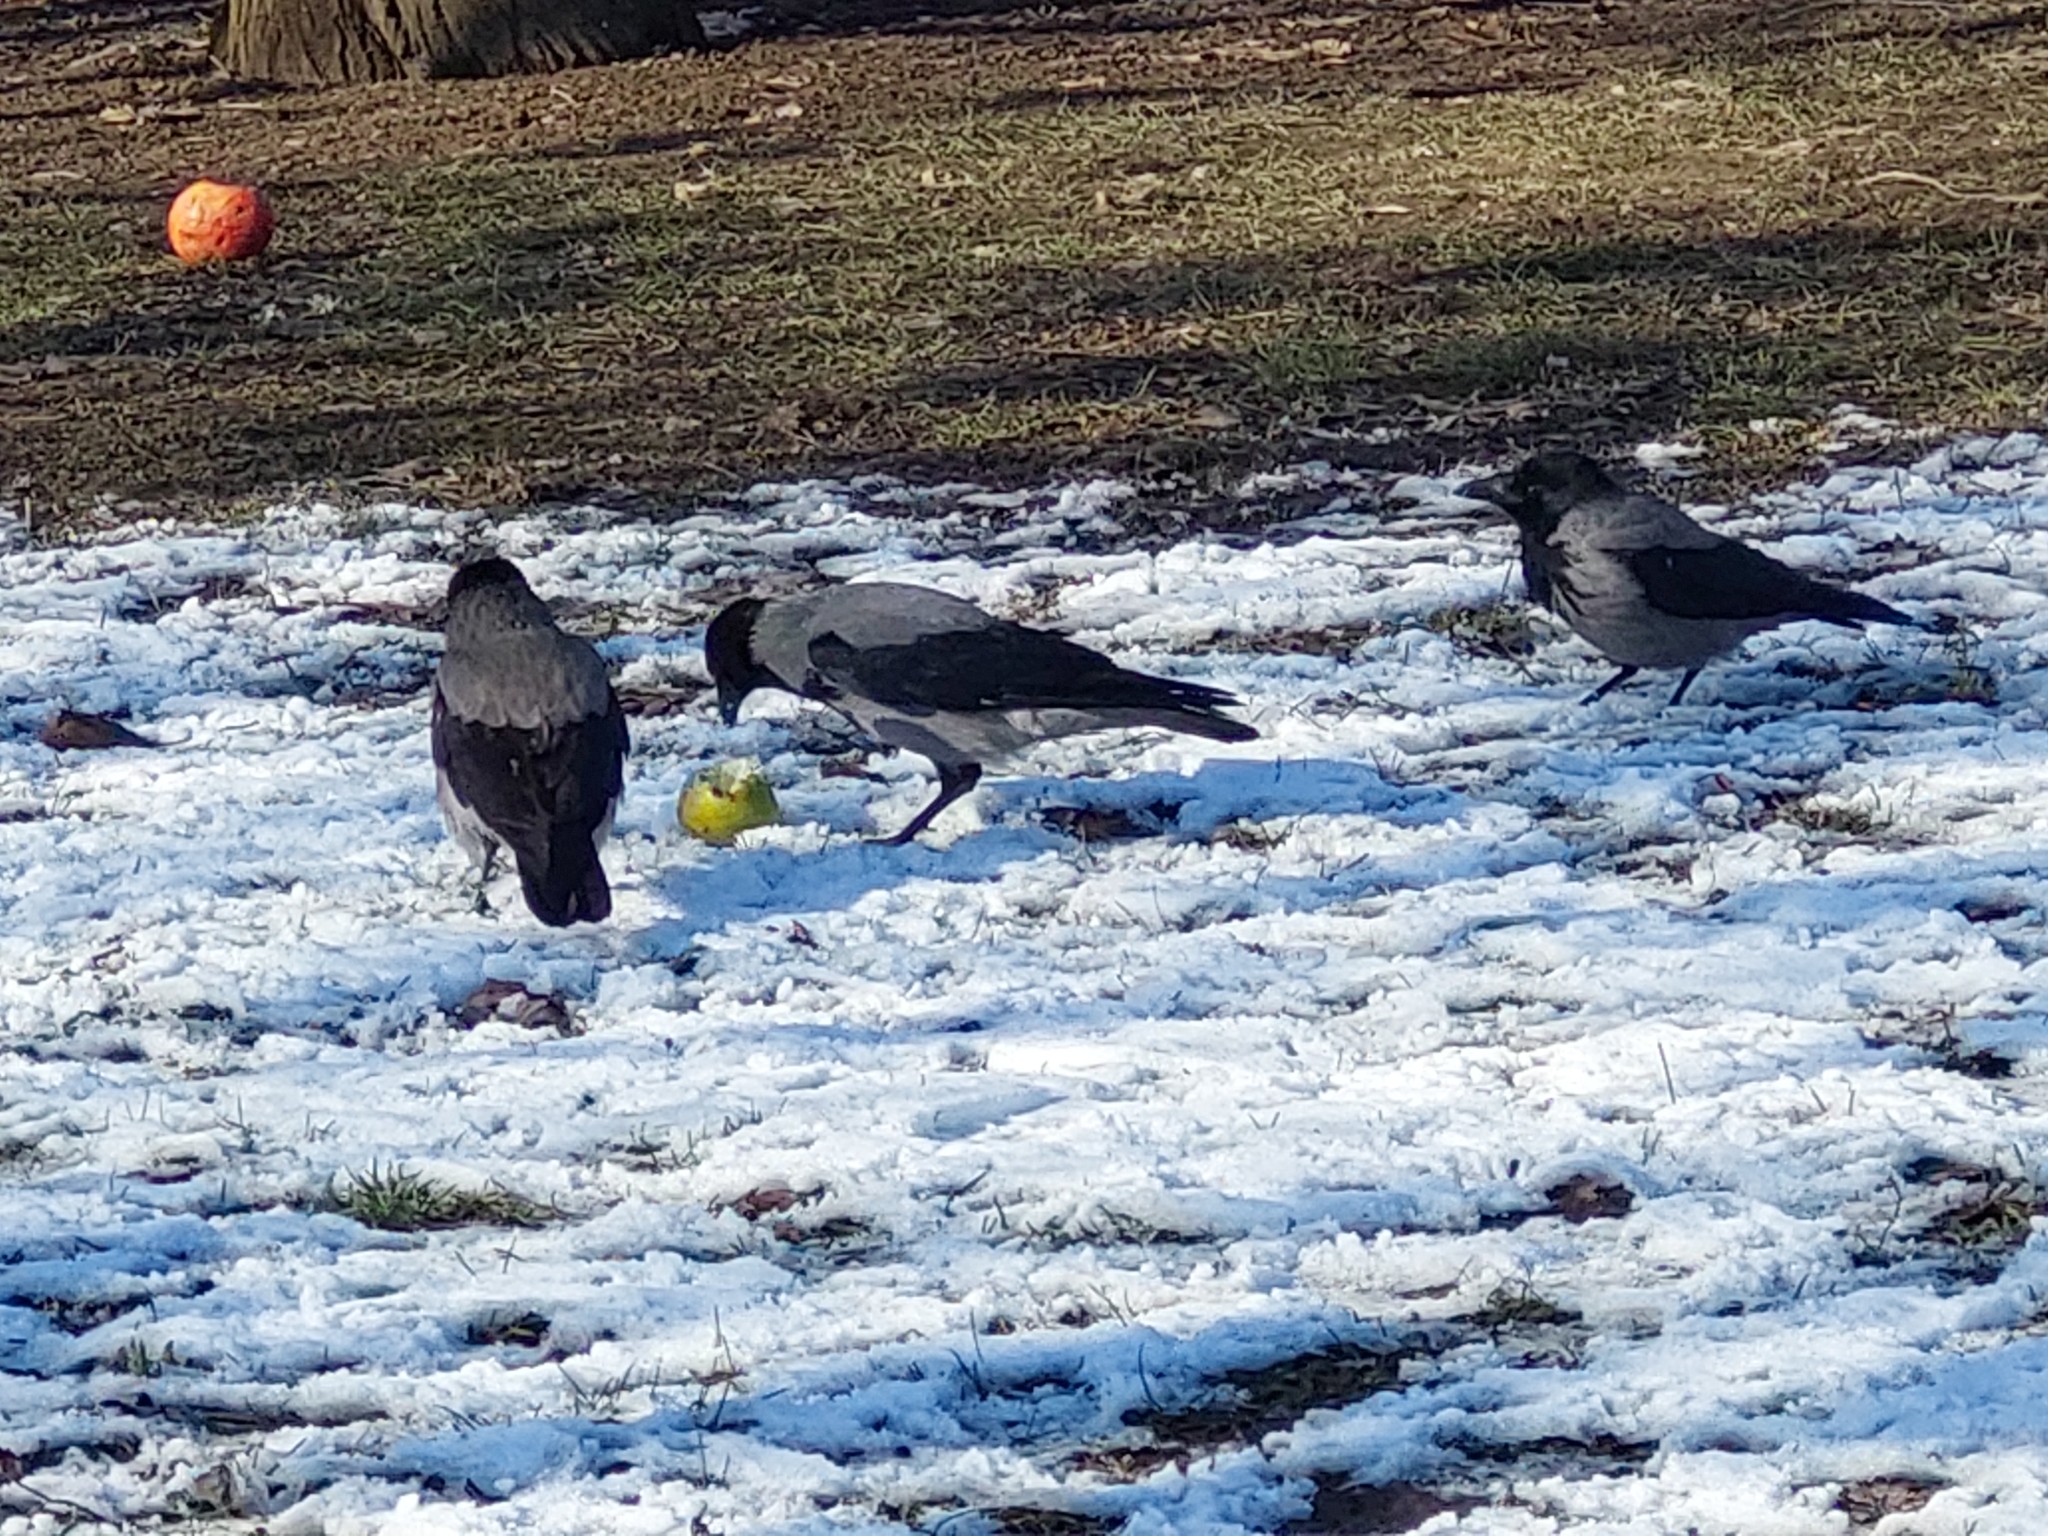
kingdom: Animalia
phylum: Chordata
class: Aves
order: Passeriformes
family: Corvidae
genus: Corvus
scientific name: Corvus cornix
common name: Hooded crow
